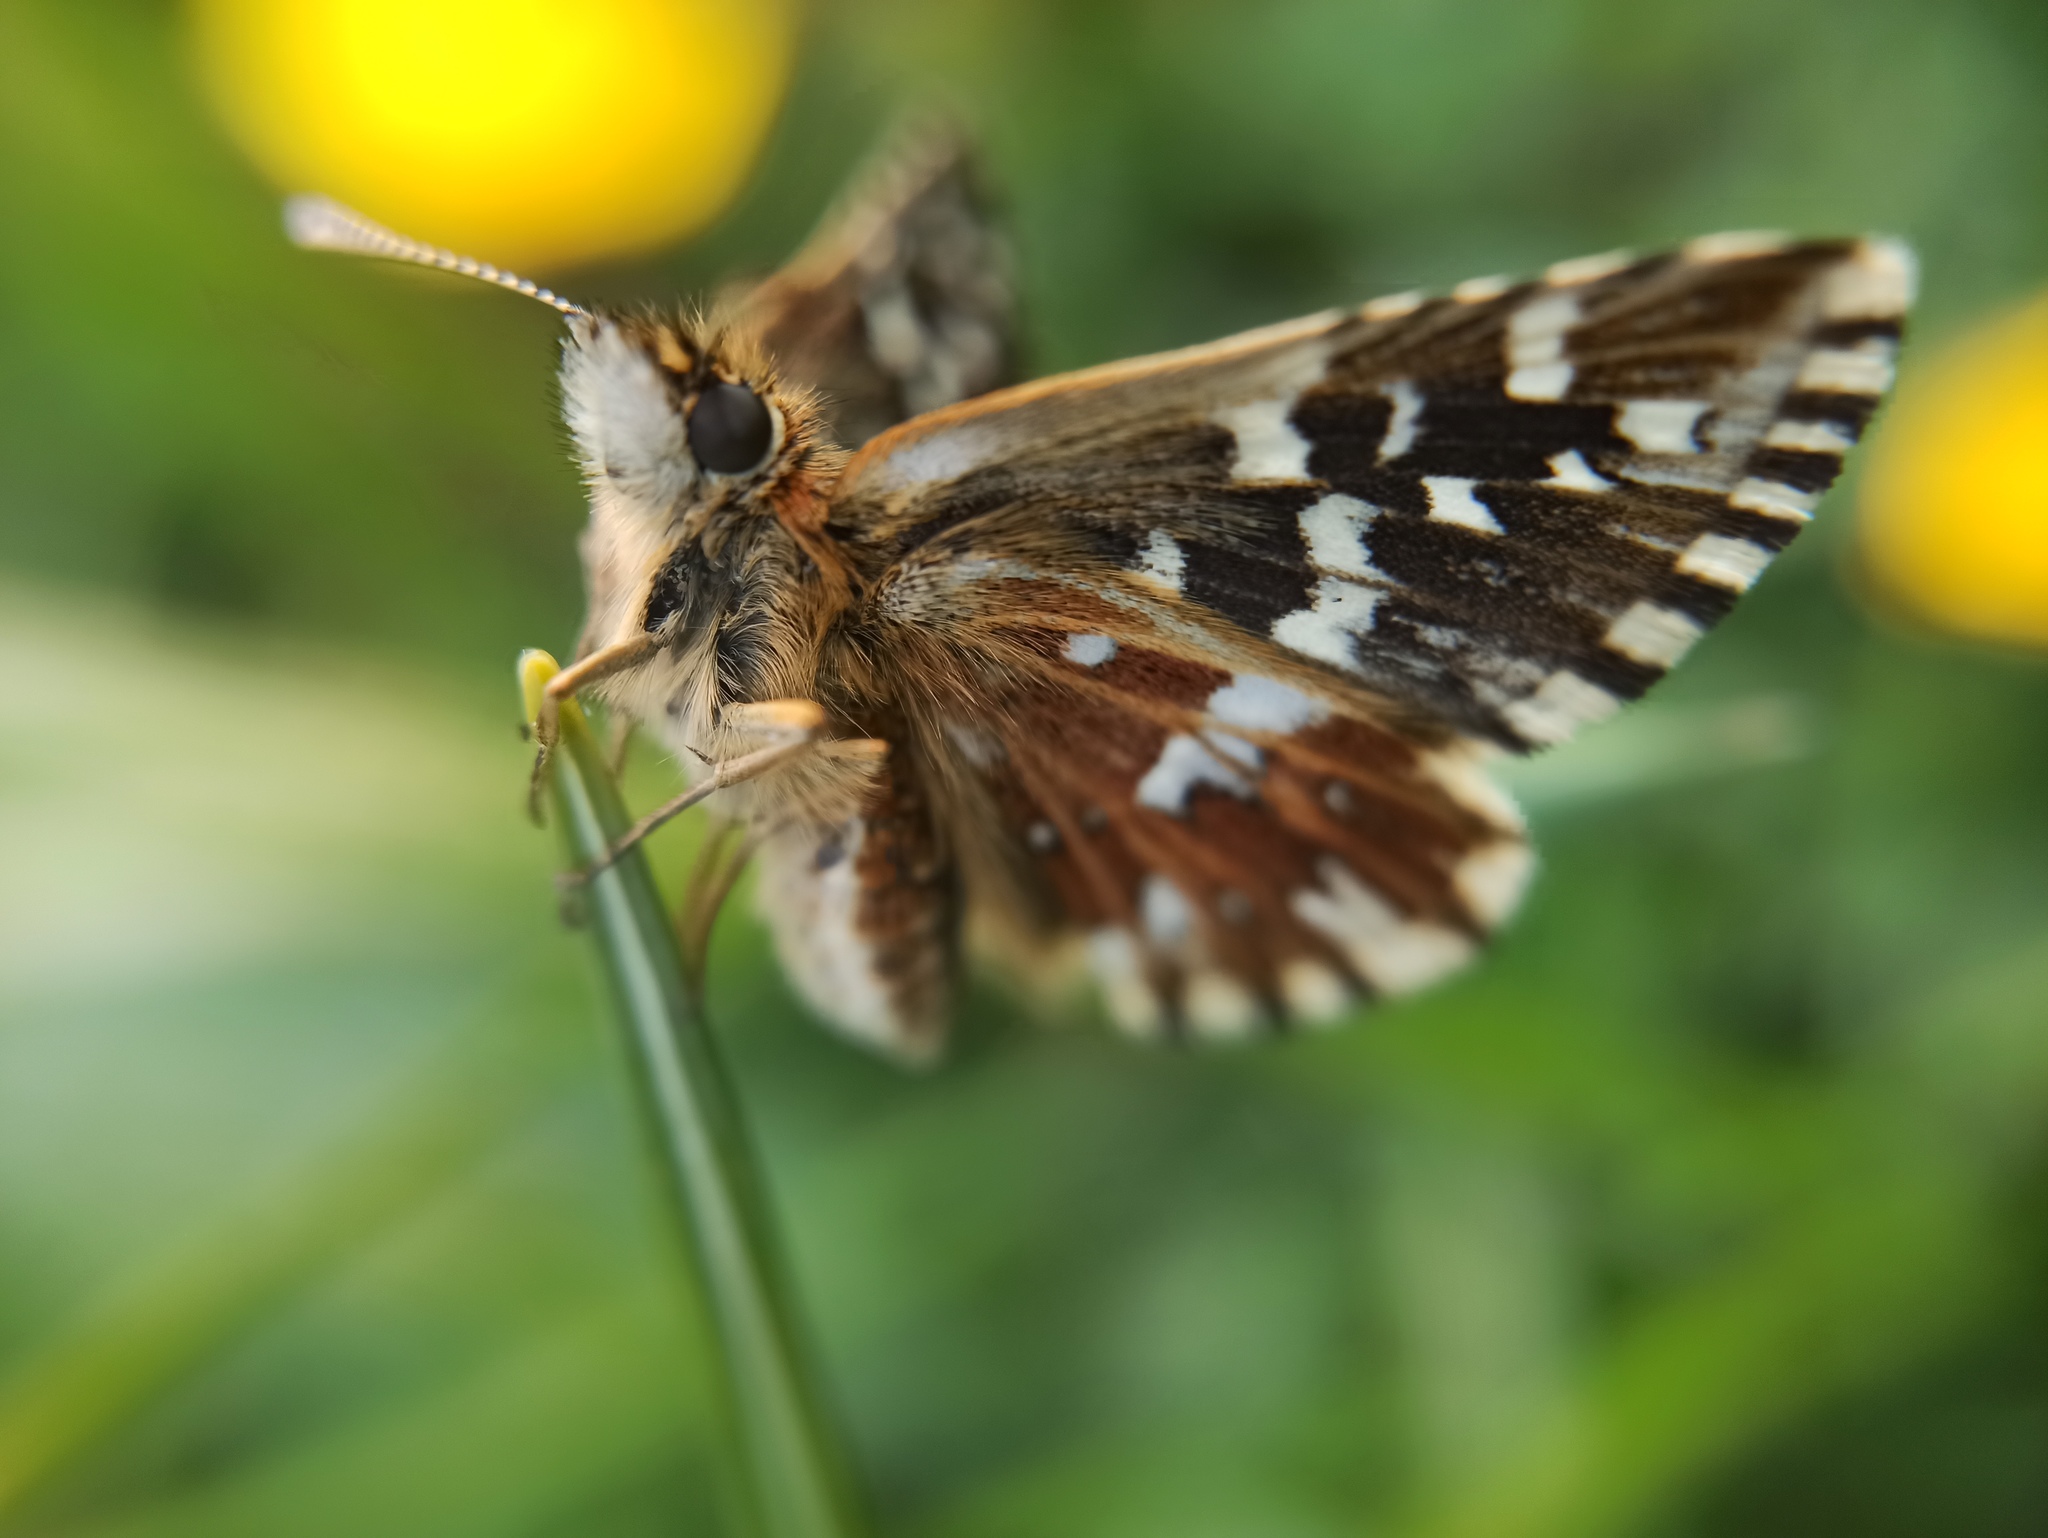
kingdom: Animalia
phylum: Arthropoda
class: Insecta
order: Lepidoptera
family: Hesperiidae
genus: Pyrgus
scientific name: Pyrgus malvoides
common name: Southern grizzled skipper
